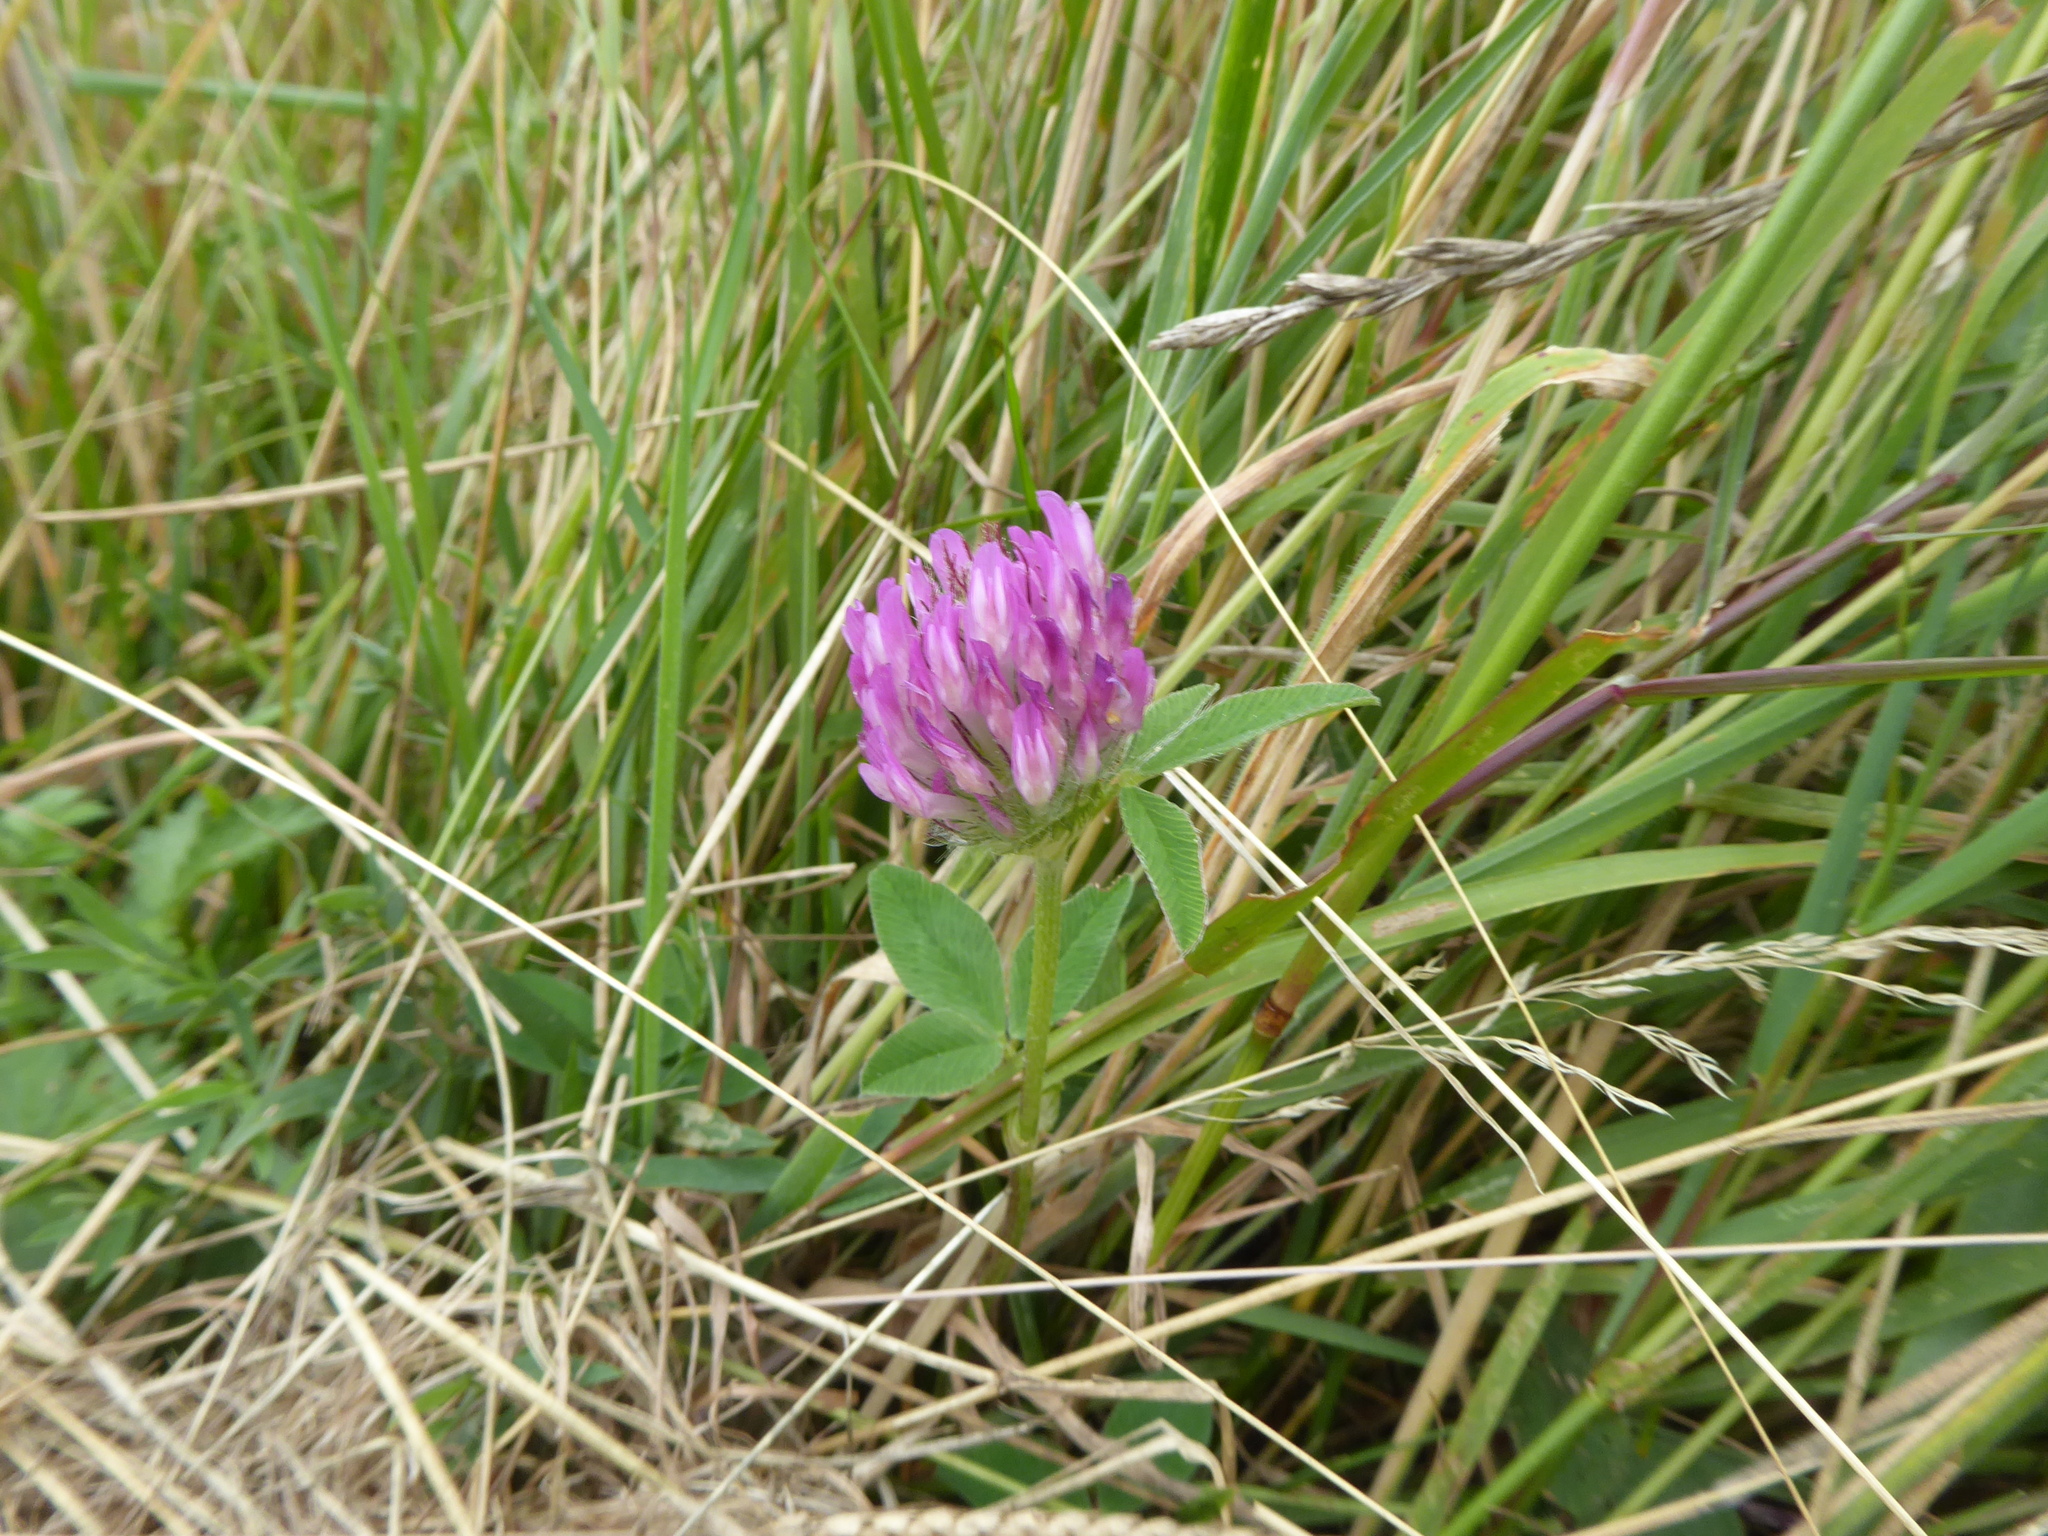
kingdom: Plantae
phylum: Tracheophyta
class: Magnoliopsida
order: Fabales
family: Fabaceae
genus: Trifolium
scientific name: Trifolium pratense
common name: Red clover
